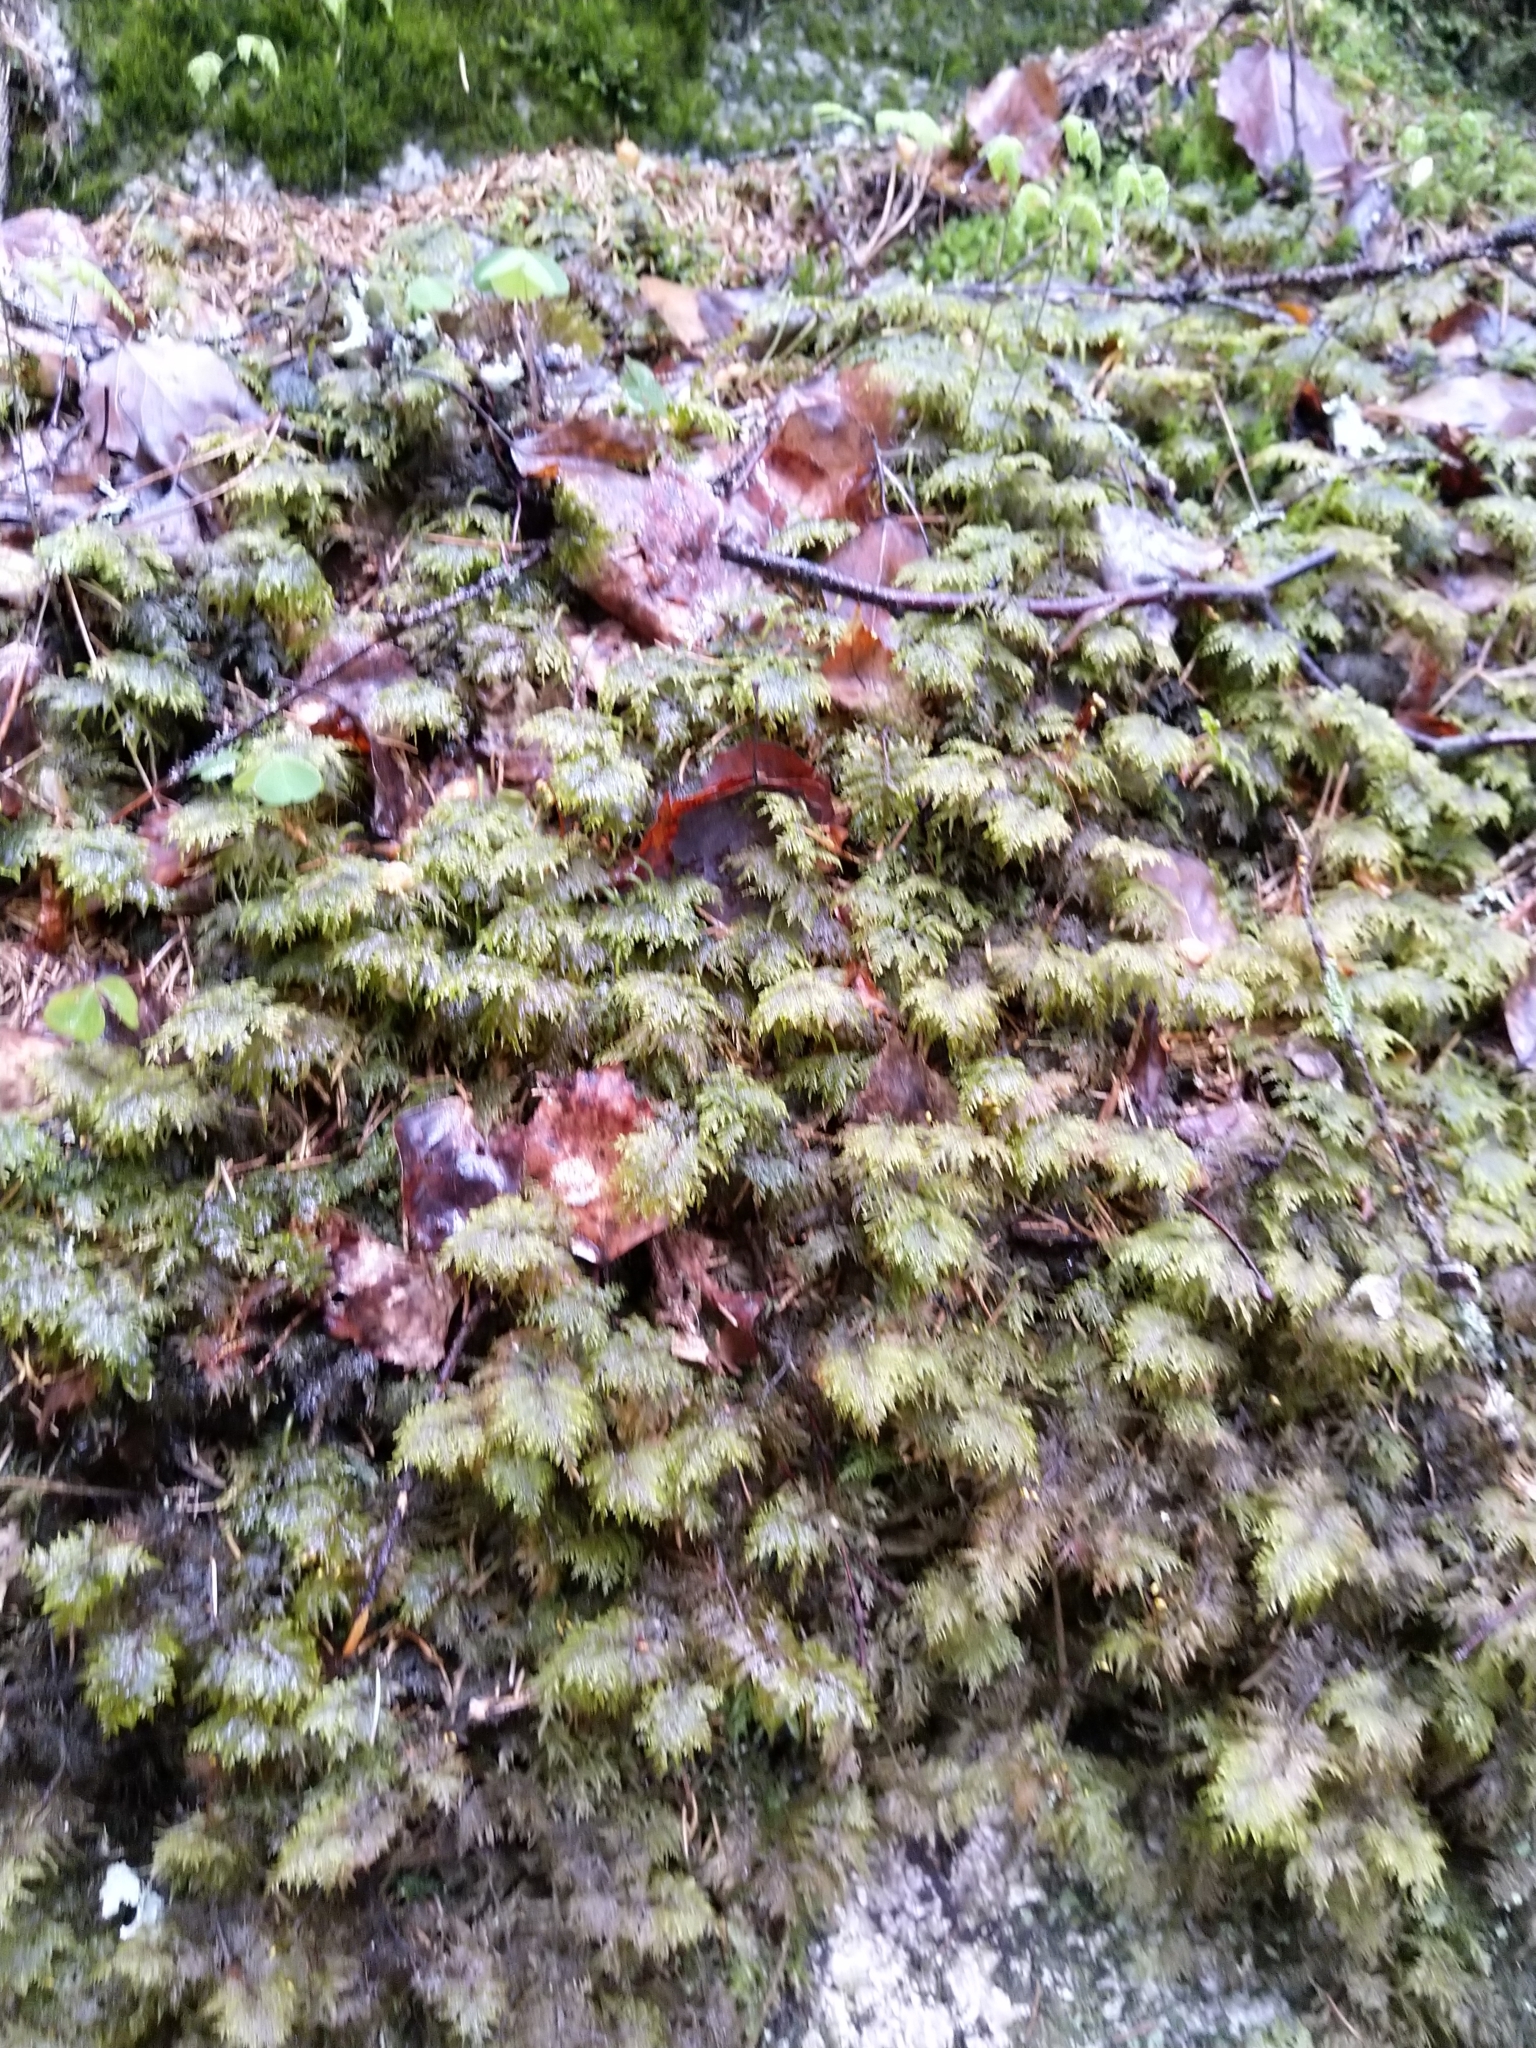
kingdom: Plantae
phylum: Bryophyta
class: Bryopsida
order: Hypnales
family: Hylocomiaceae
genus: Hylocomium
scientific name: Hylocomium splendens
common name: Stairstep moss
